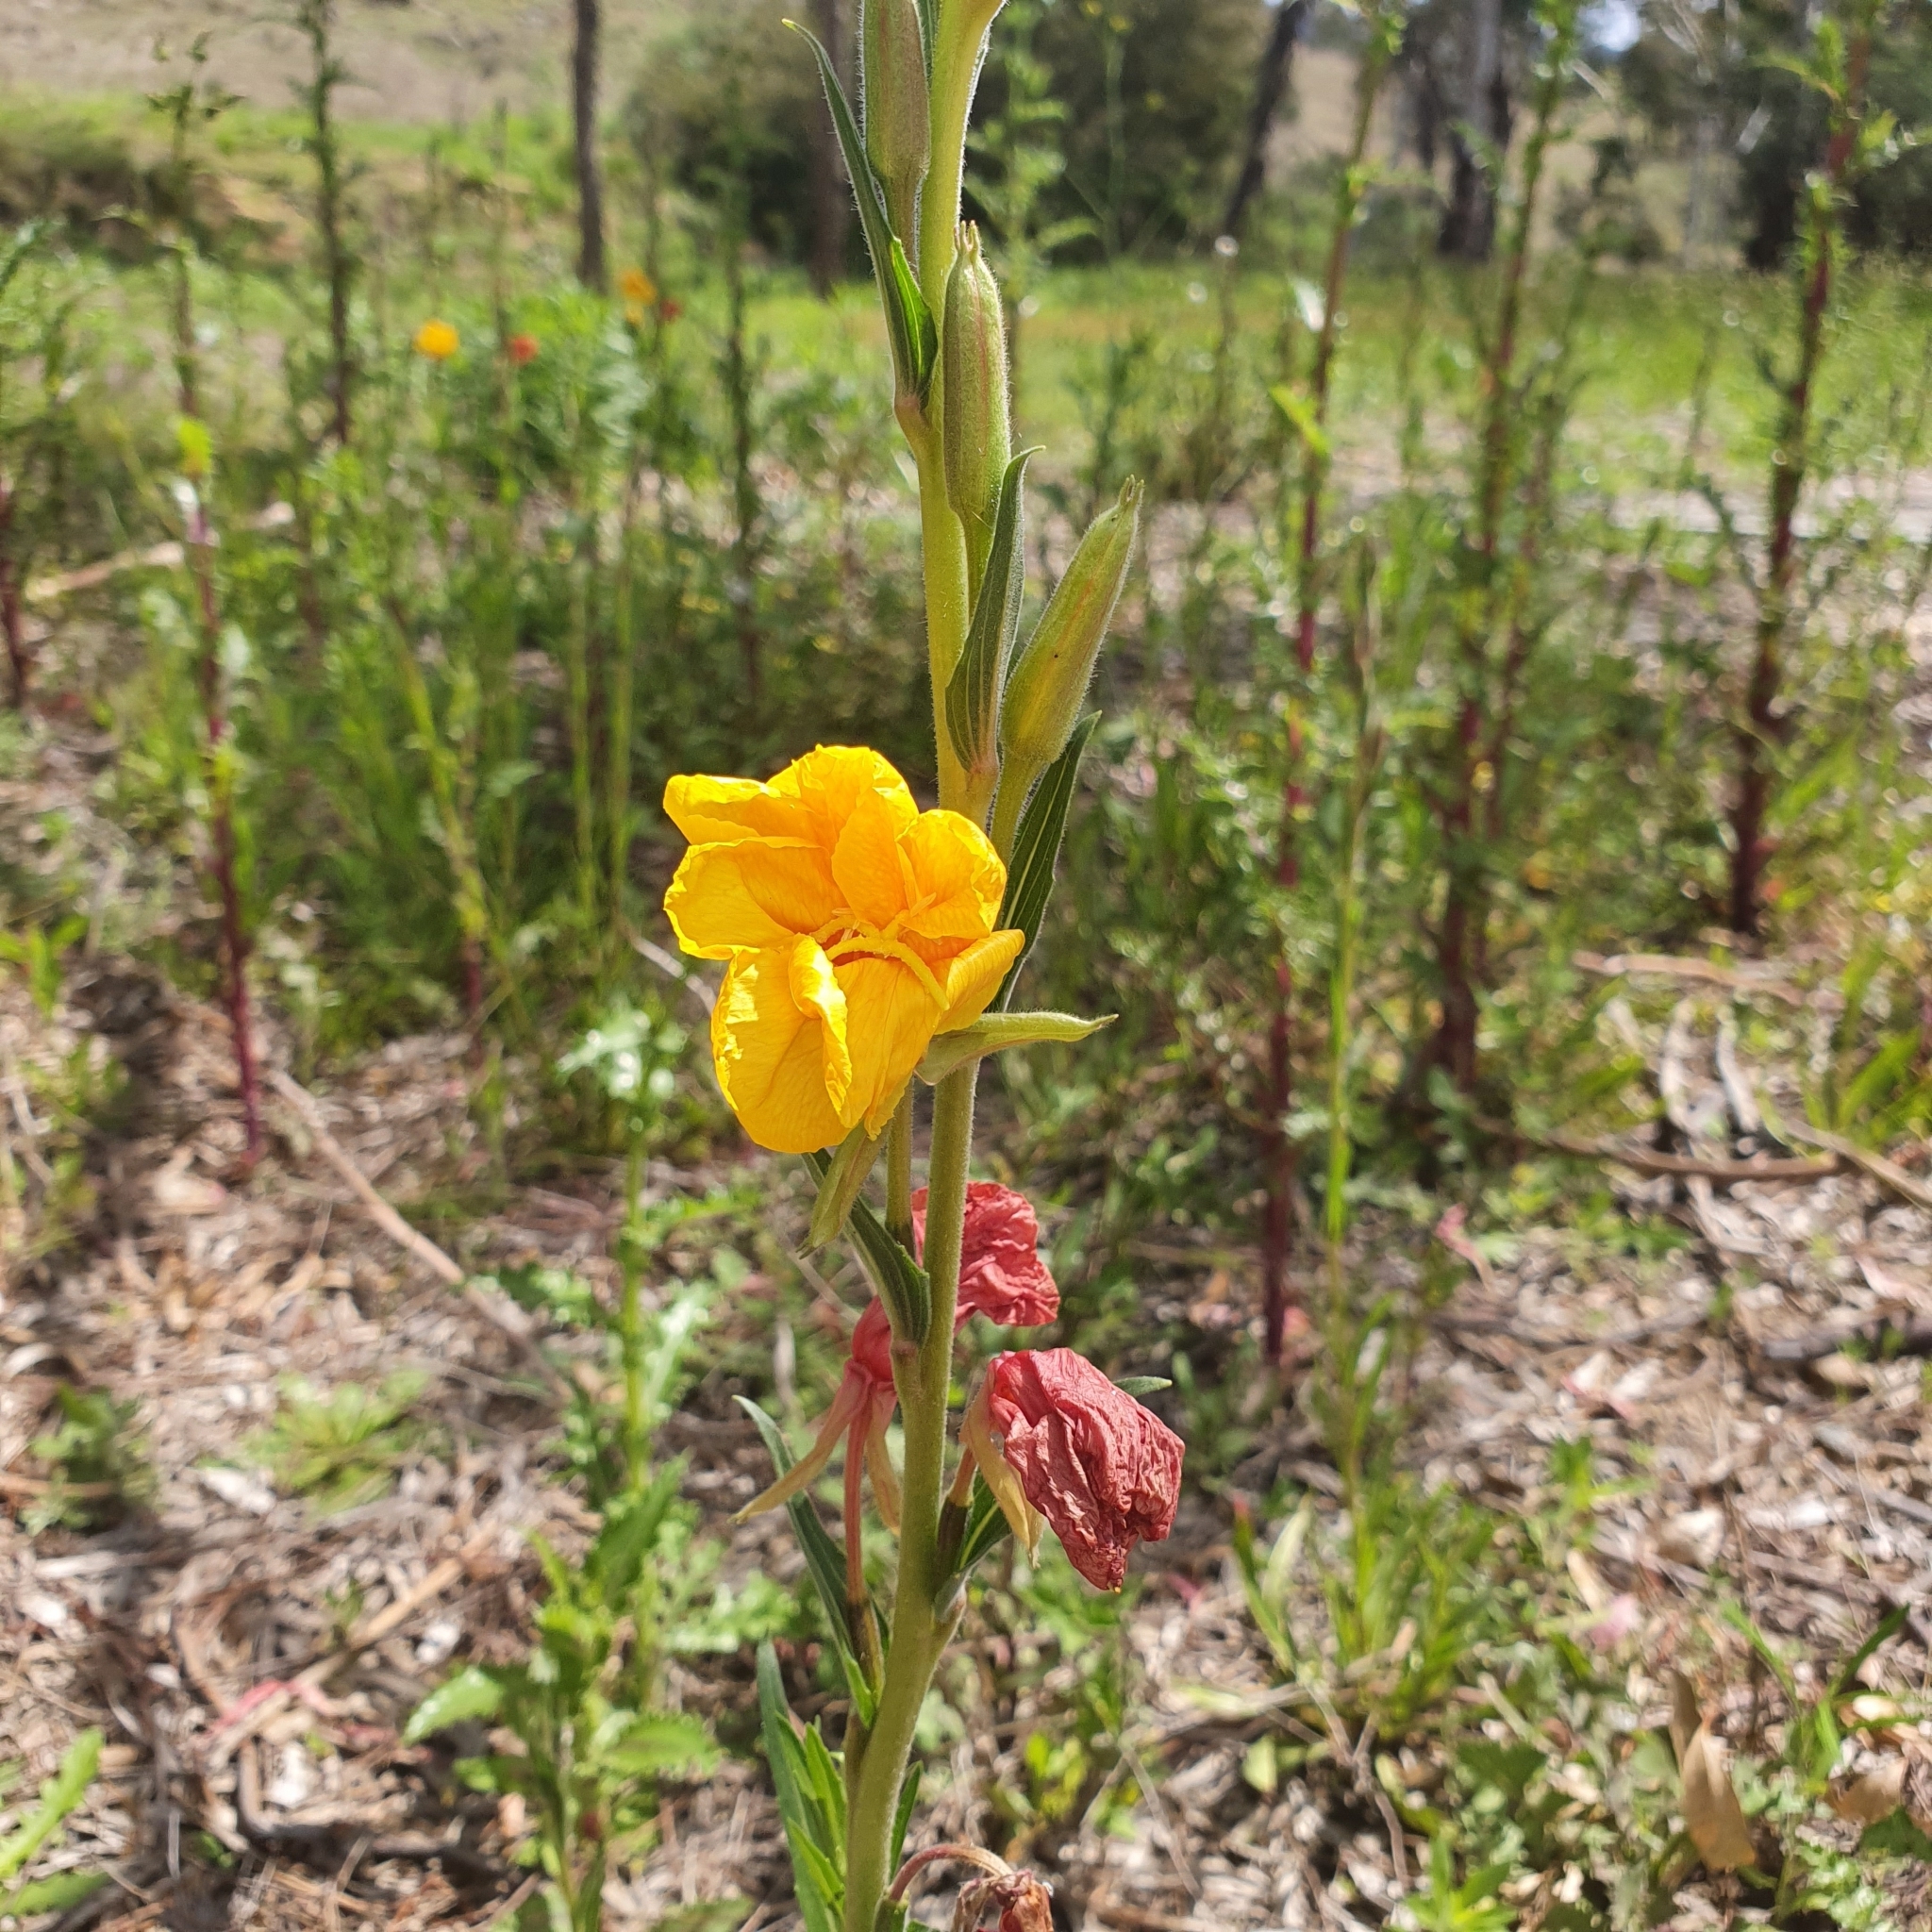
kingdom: Plantae
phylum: Tracheophyta
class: Magnoliopsida
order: Myrtales
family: Onagraceae
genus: Oenothera
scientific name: Oenothera stricta
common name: Fragrant evening-primrose
